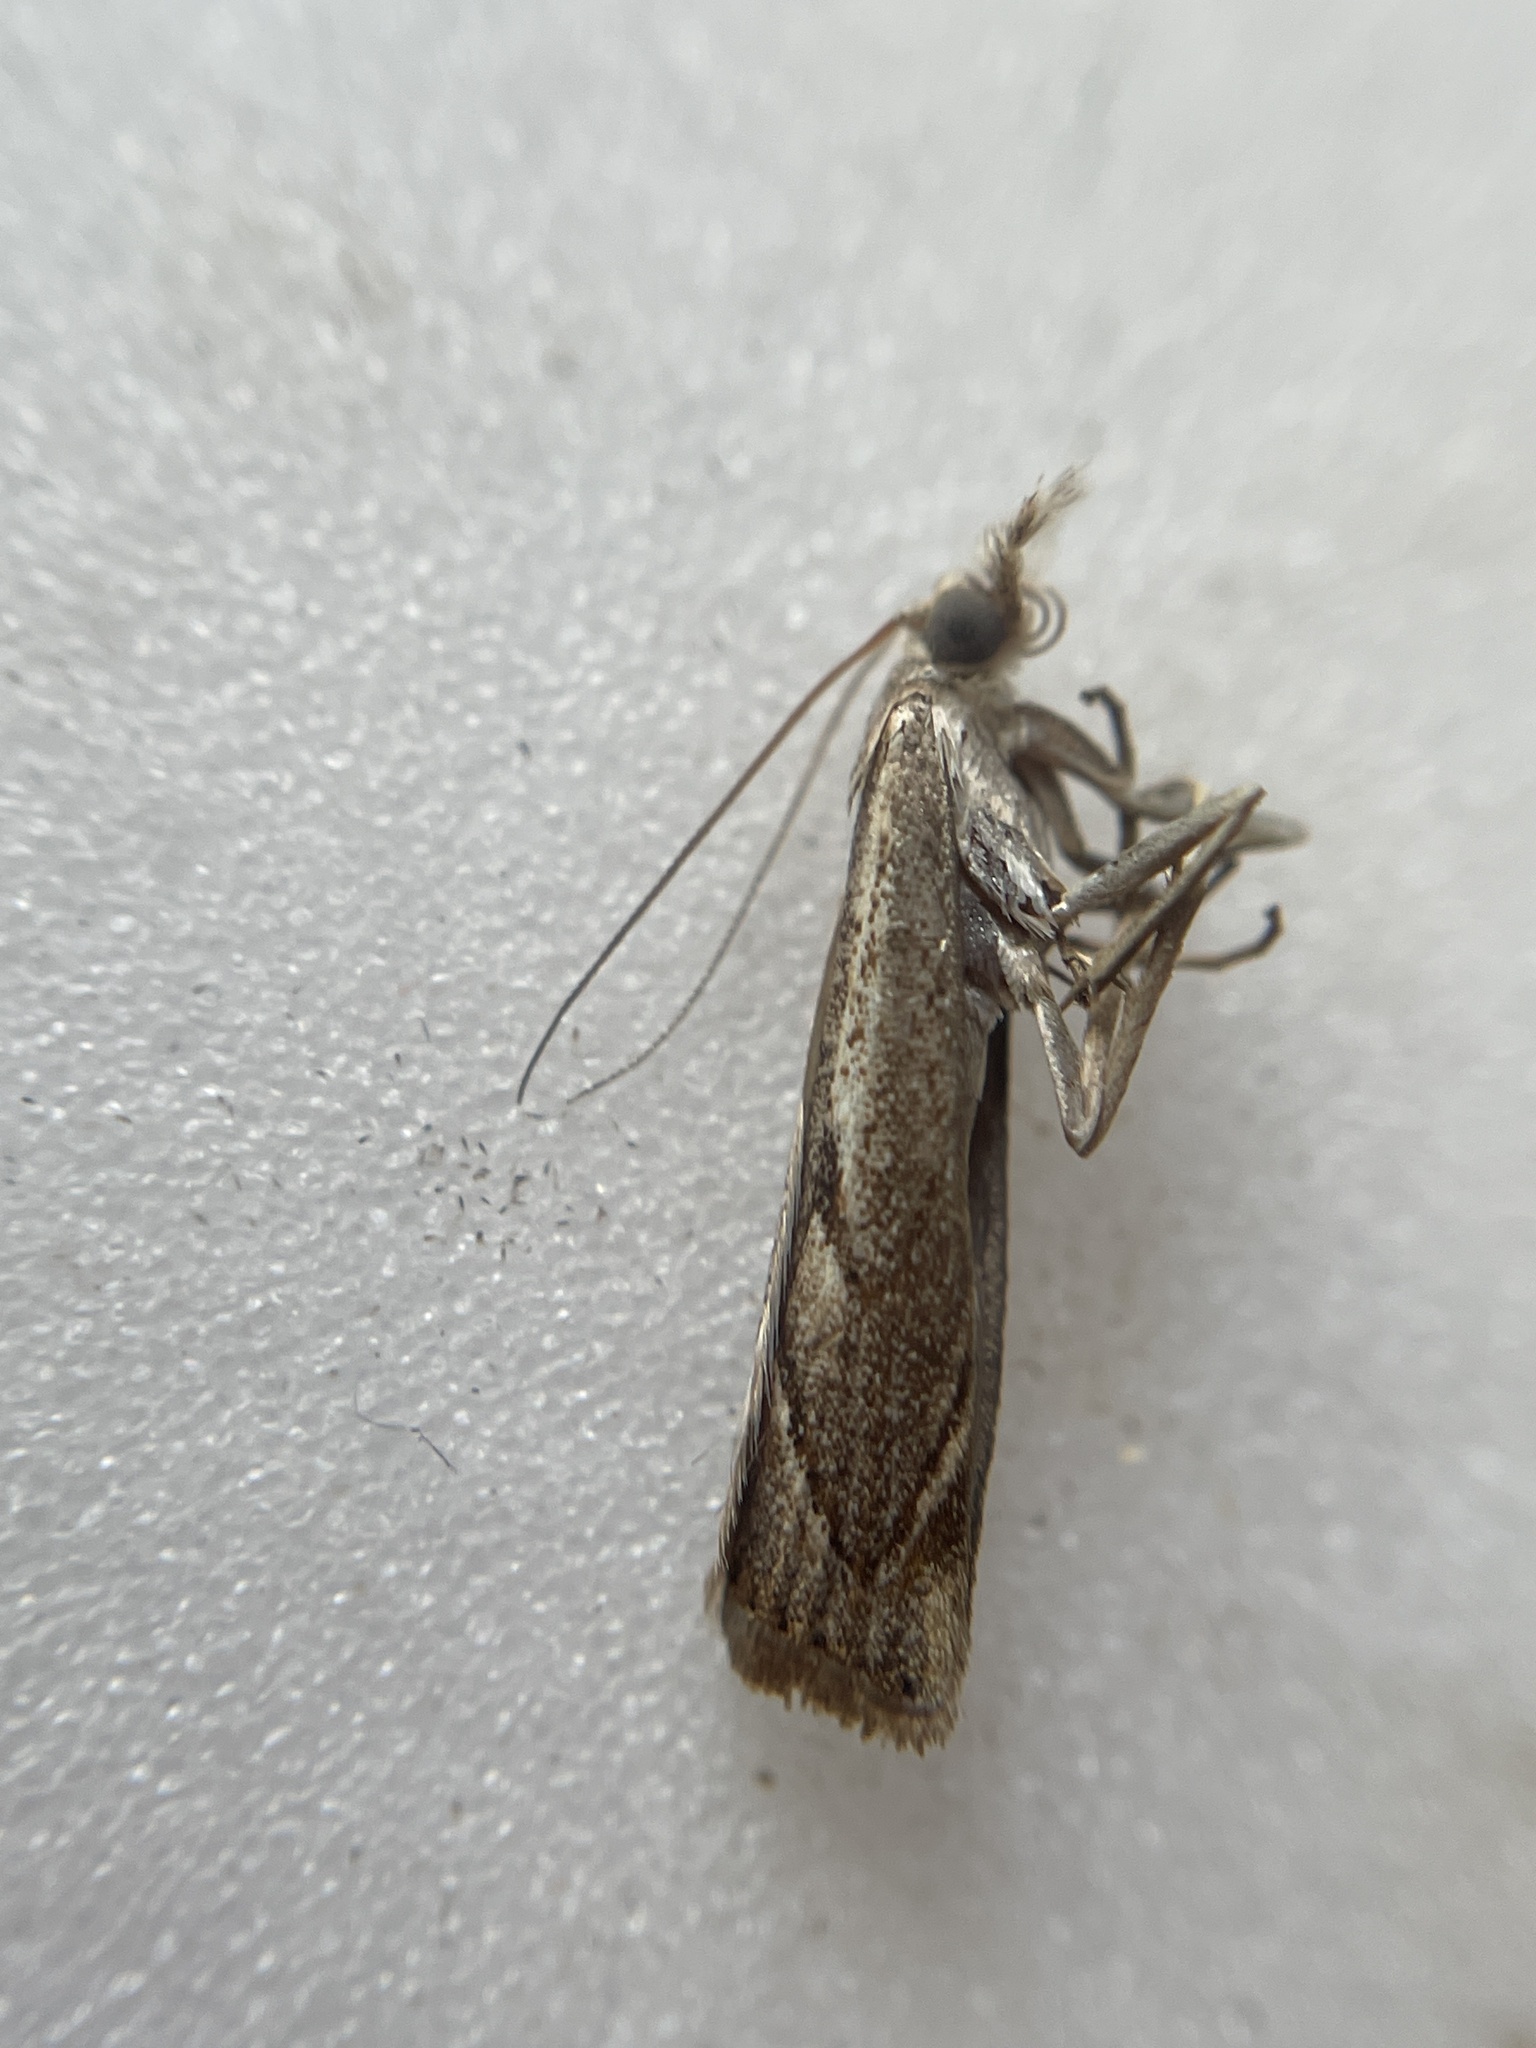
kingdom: Animalia
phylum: Arthropoda
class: Insecta
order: Lepidoptera
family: Crambidae
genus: Agriphila
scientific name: Agriphila geniculea
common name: Elbow-stripe grass-veneer
